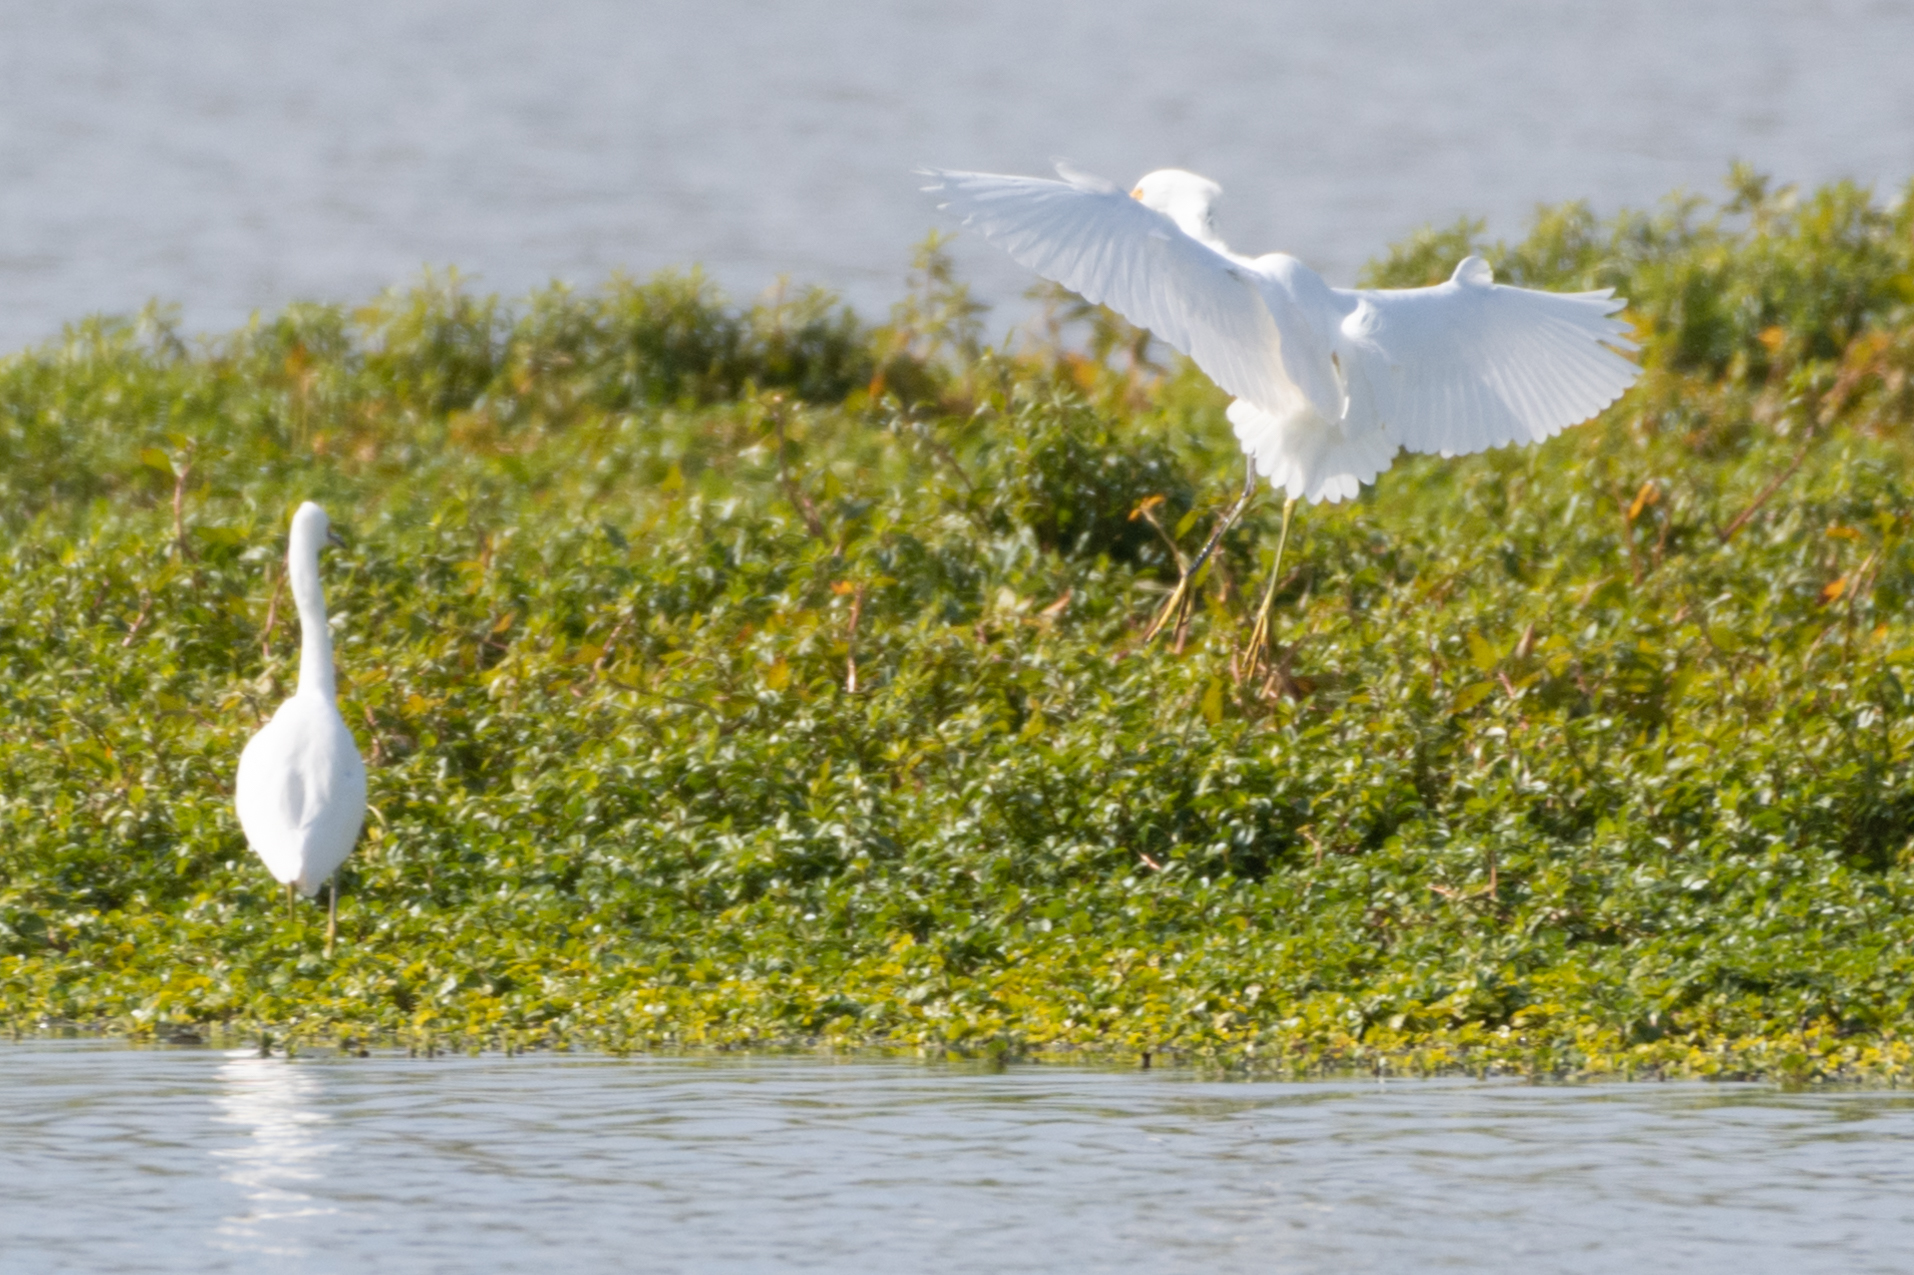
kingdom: Animalia
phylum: Chordata
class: Aves
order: Pelecaniformes
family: Ardeidae
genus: Egretta
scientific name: Egretta thula
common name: Snowy egret
